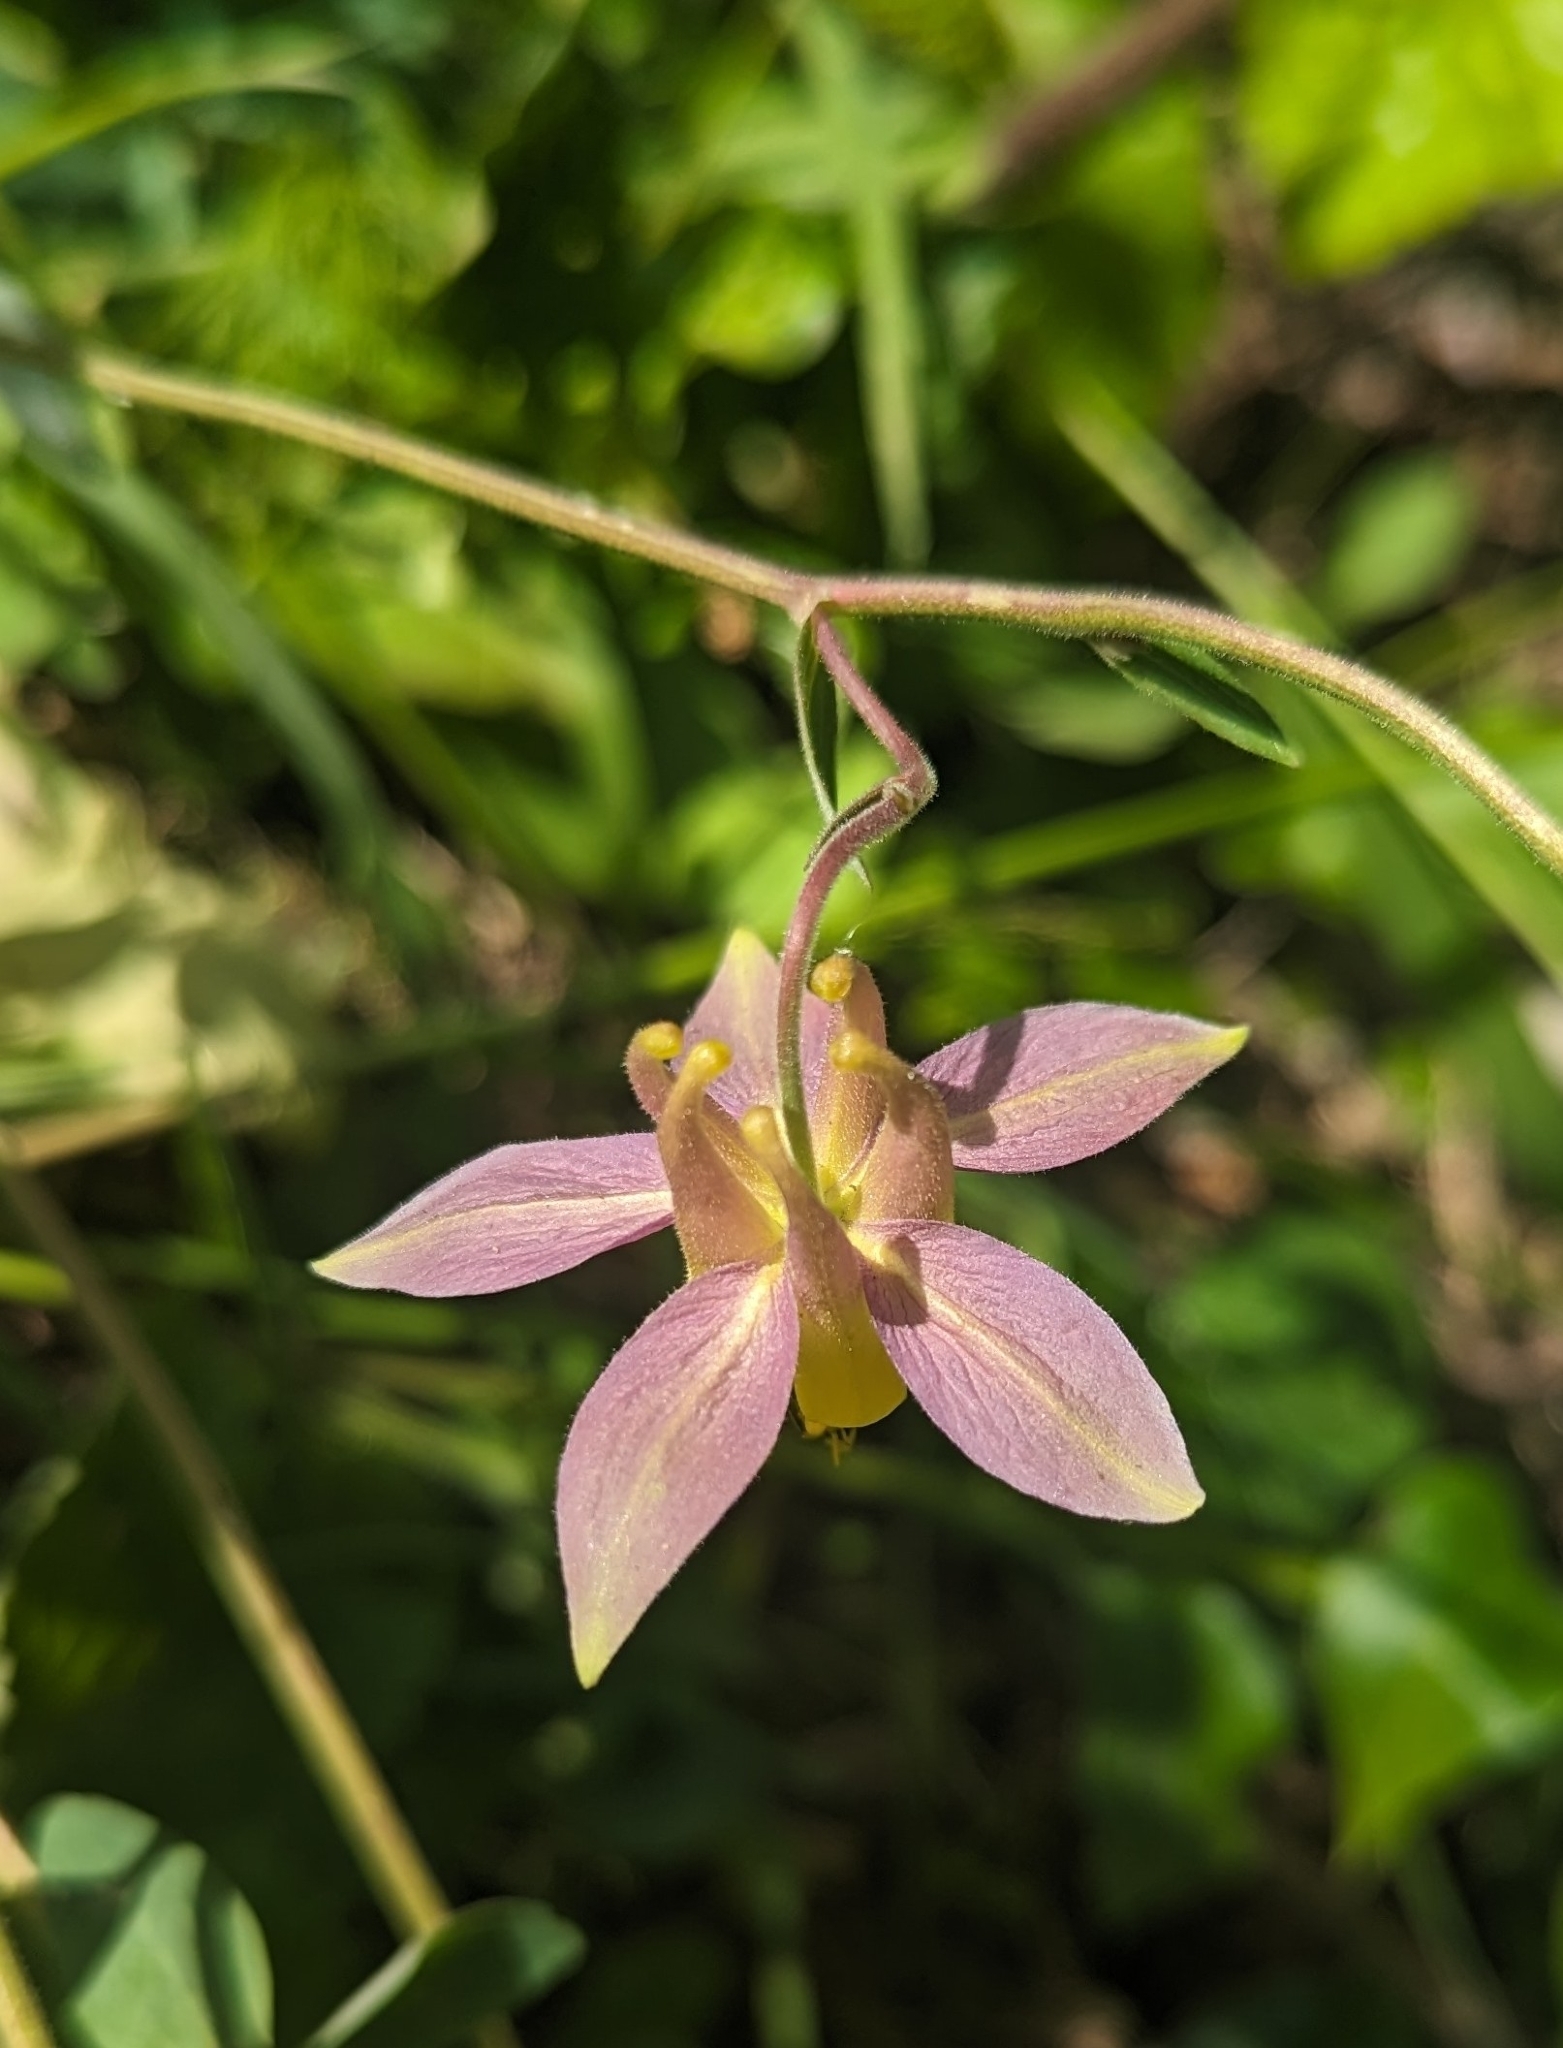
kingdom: Plantae
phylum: Tracheophyta
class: Magnoliopsida
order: Ranunculales
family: Ranunculaceae
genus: Aquilegia
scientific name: Aquilegia flavescens
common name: Yellow columbine
